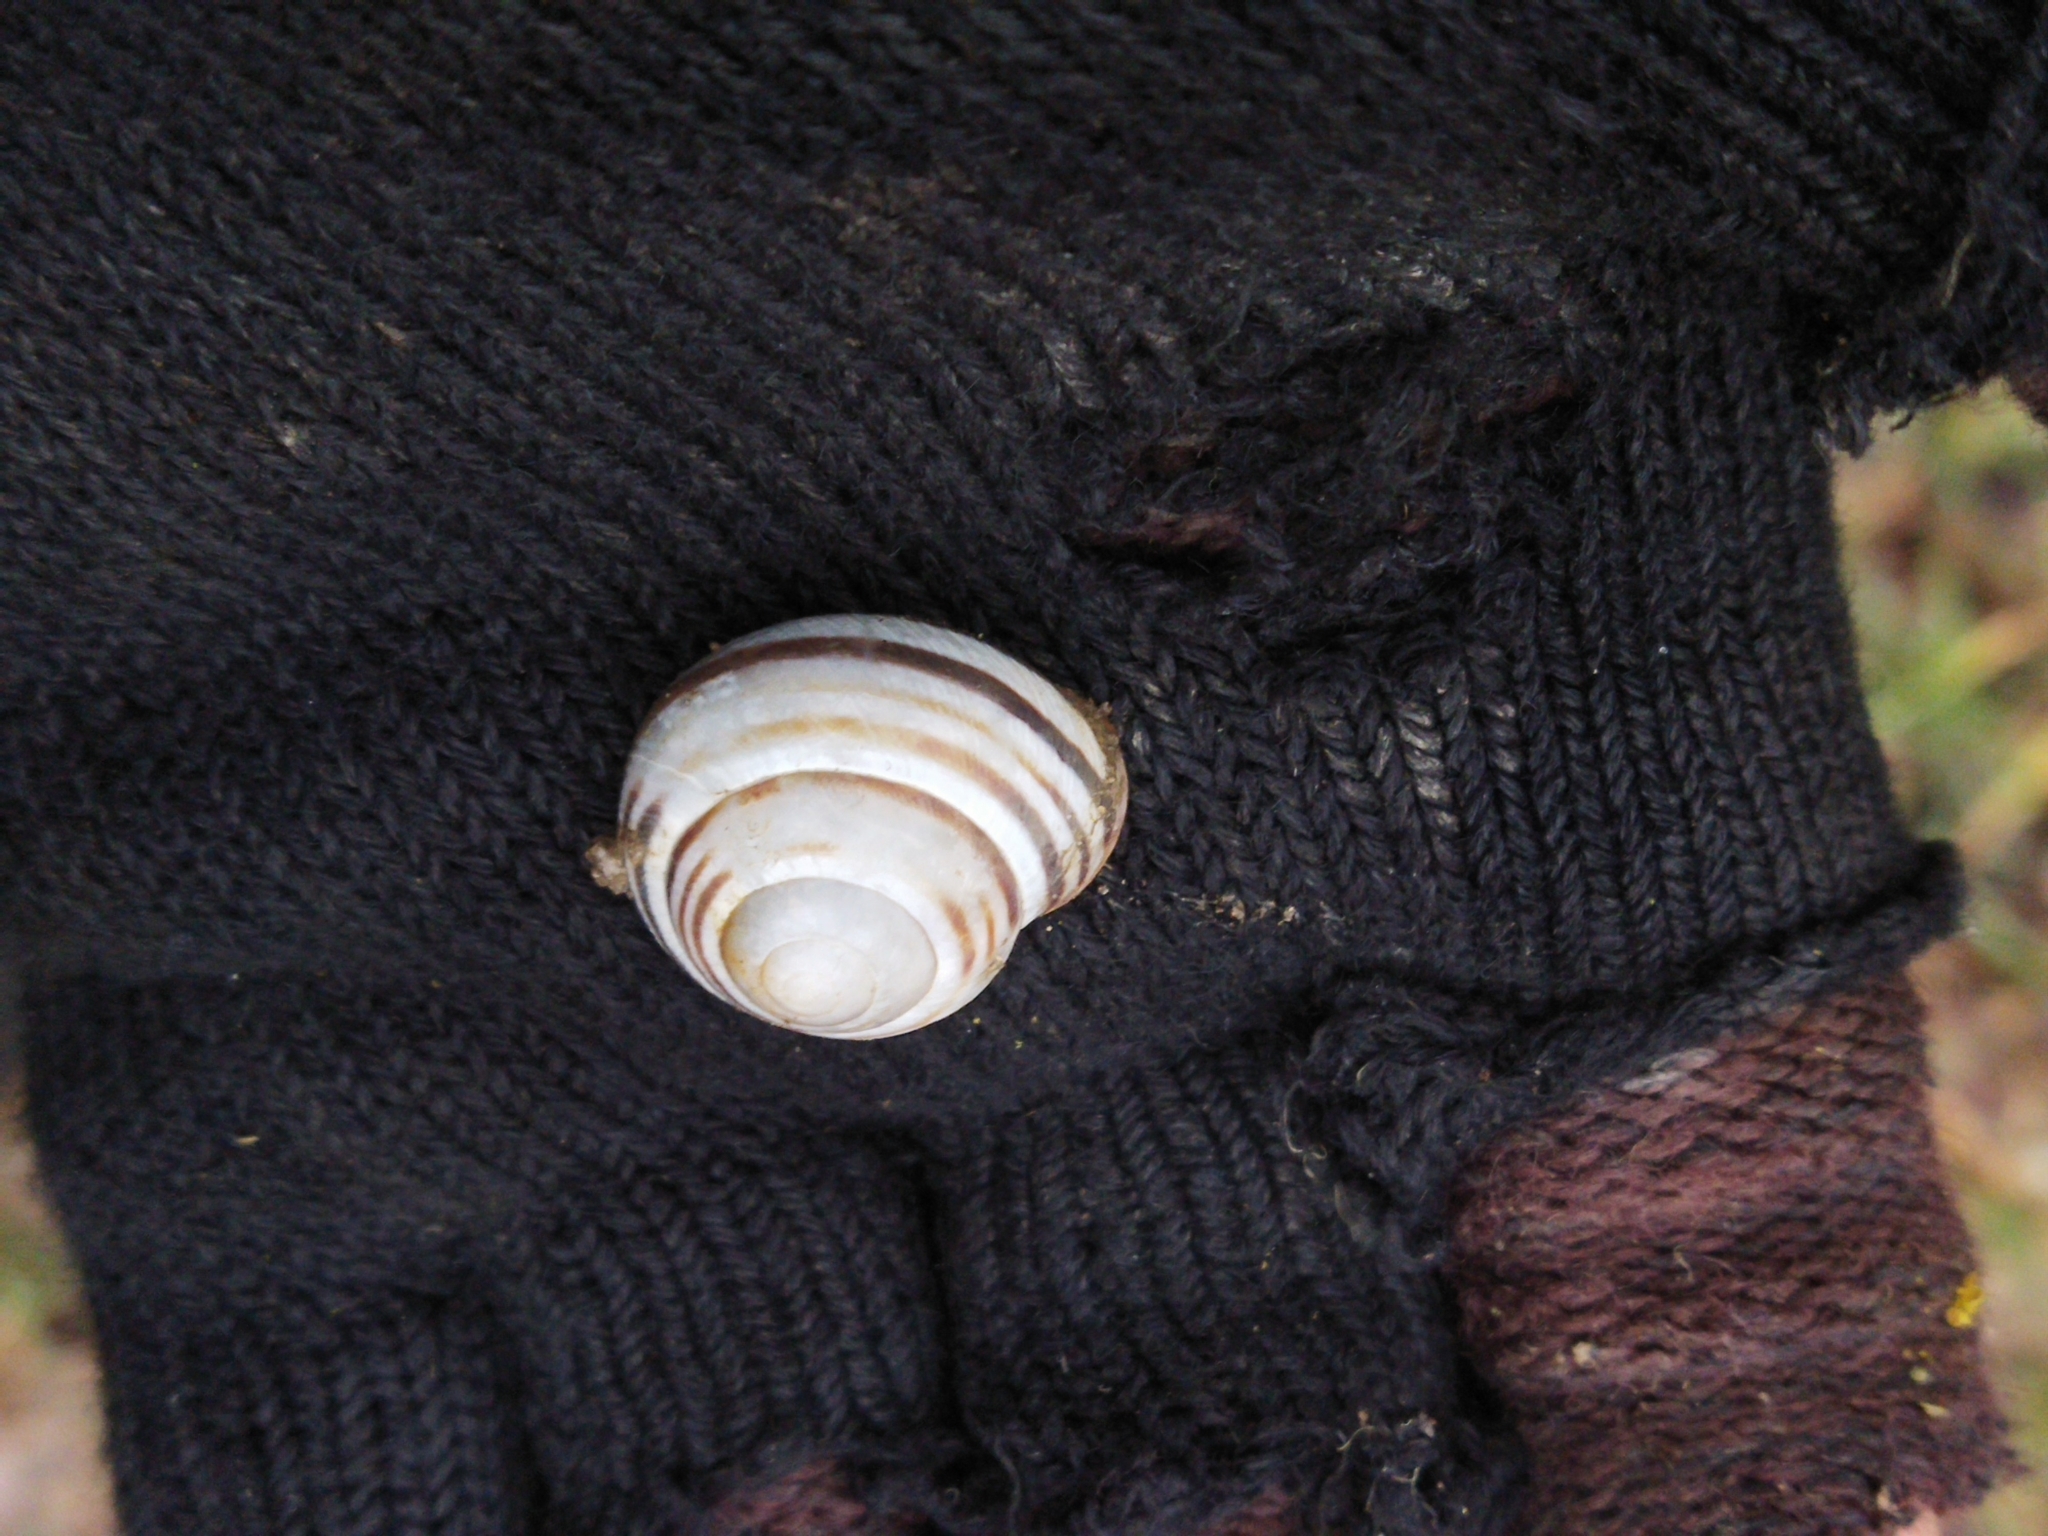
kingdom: Animalia
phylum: Mollusca
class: Gastropoda
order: Stylommatophora
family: Helicidae
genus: Caucasotachea
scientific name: Caucasotachea vindobonensis
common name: European helicid land snail
